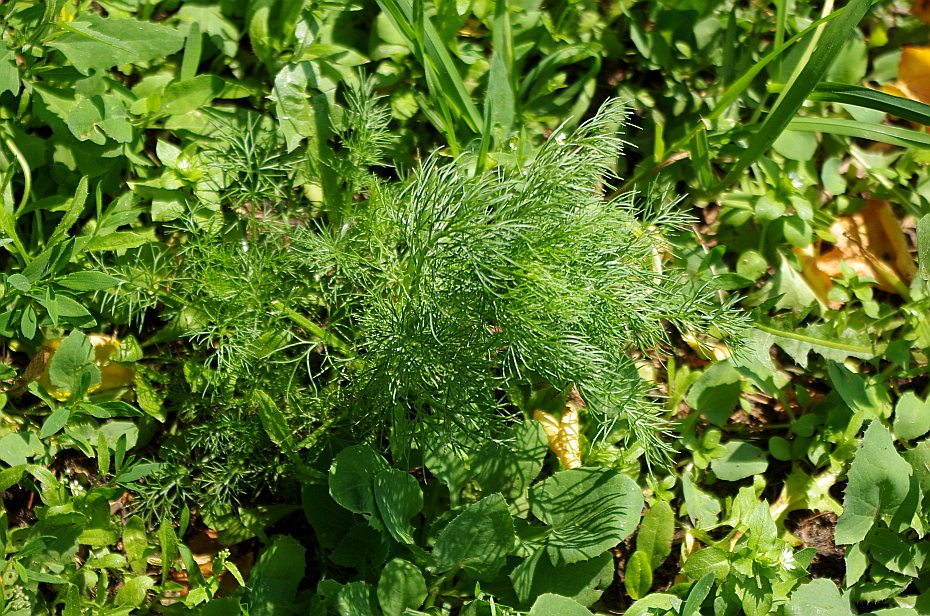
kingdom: Plantae
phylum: Tracheophyta
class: Magnoliopsida
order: Asterales
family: Asteraceae
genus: Tripleurospermum
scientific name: Tripleurospermum inodorum
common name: Scentless mayweed
